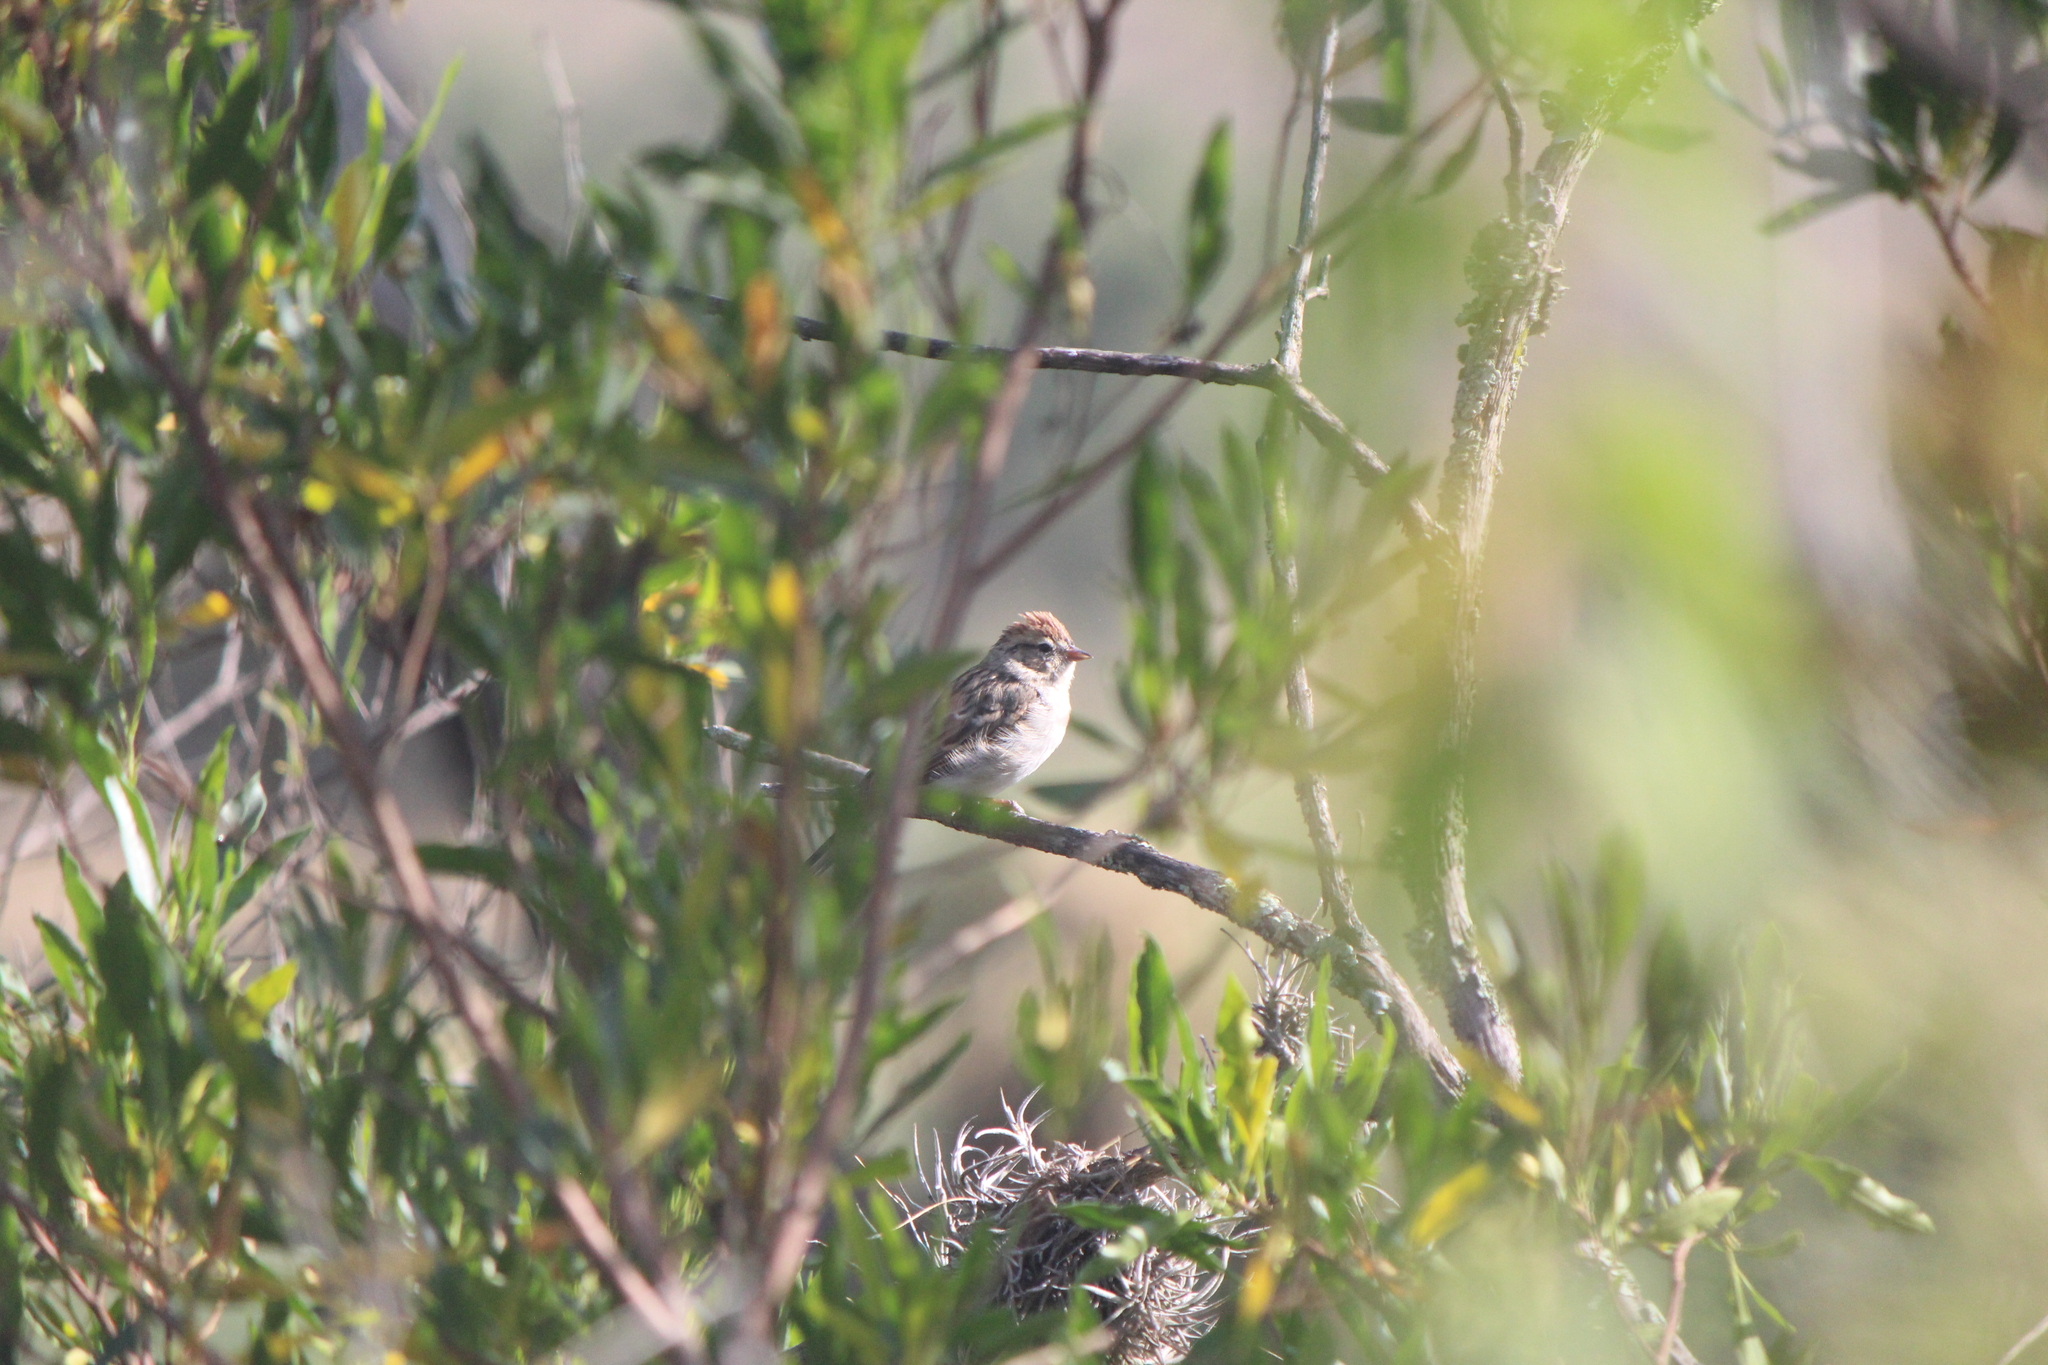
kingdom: Animalia
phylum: Chordata
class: Aves
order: Passeriformes
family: Passerellidae
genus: Spizella
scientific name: Spizella passerina
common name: Chipping sparrow
